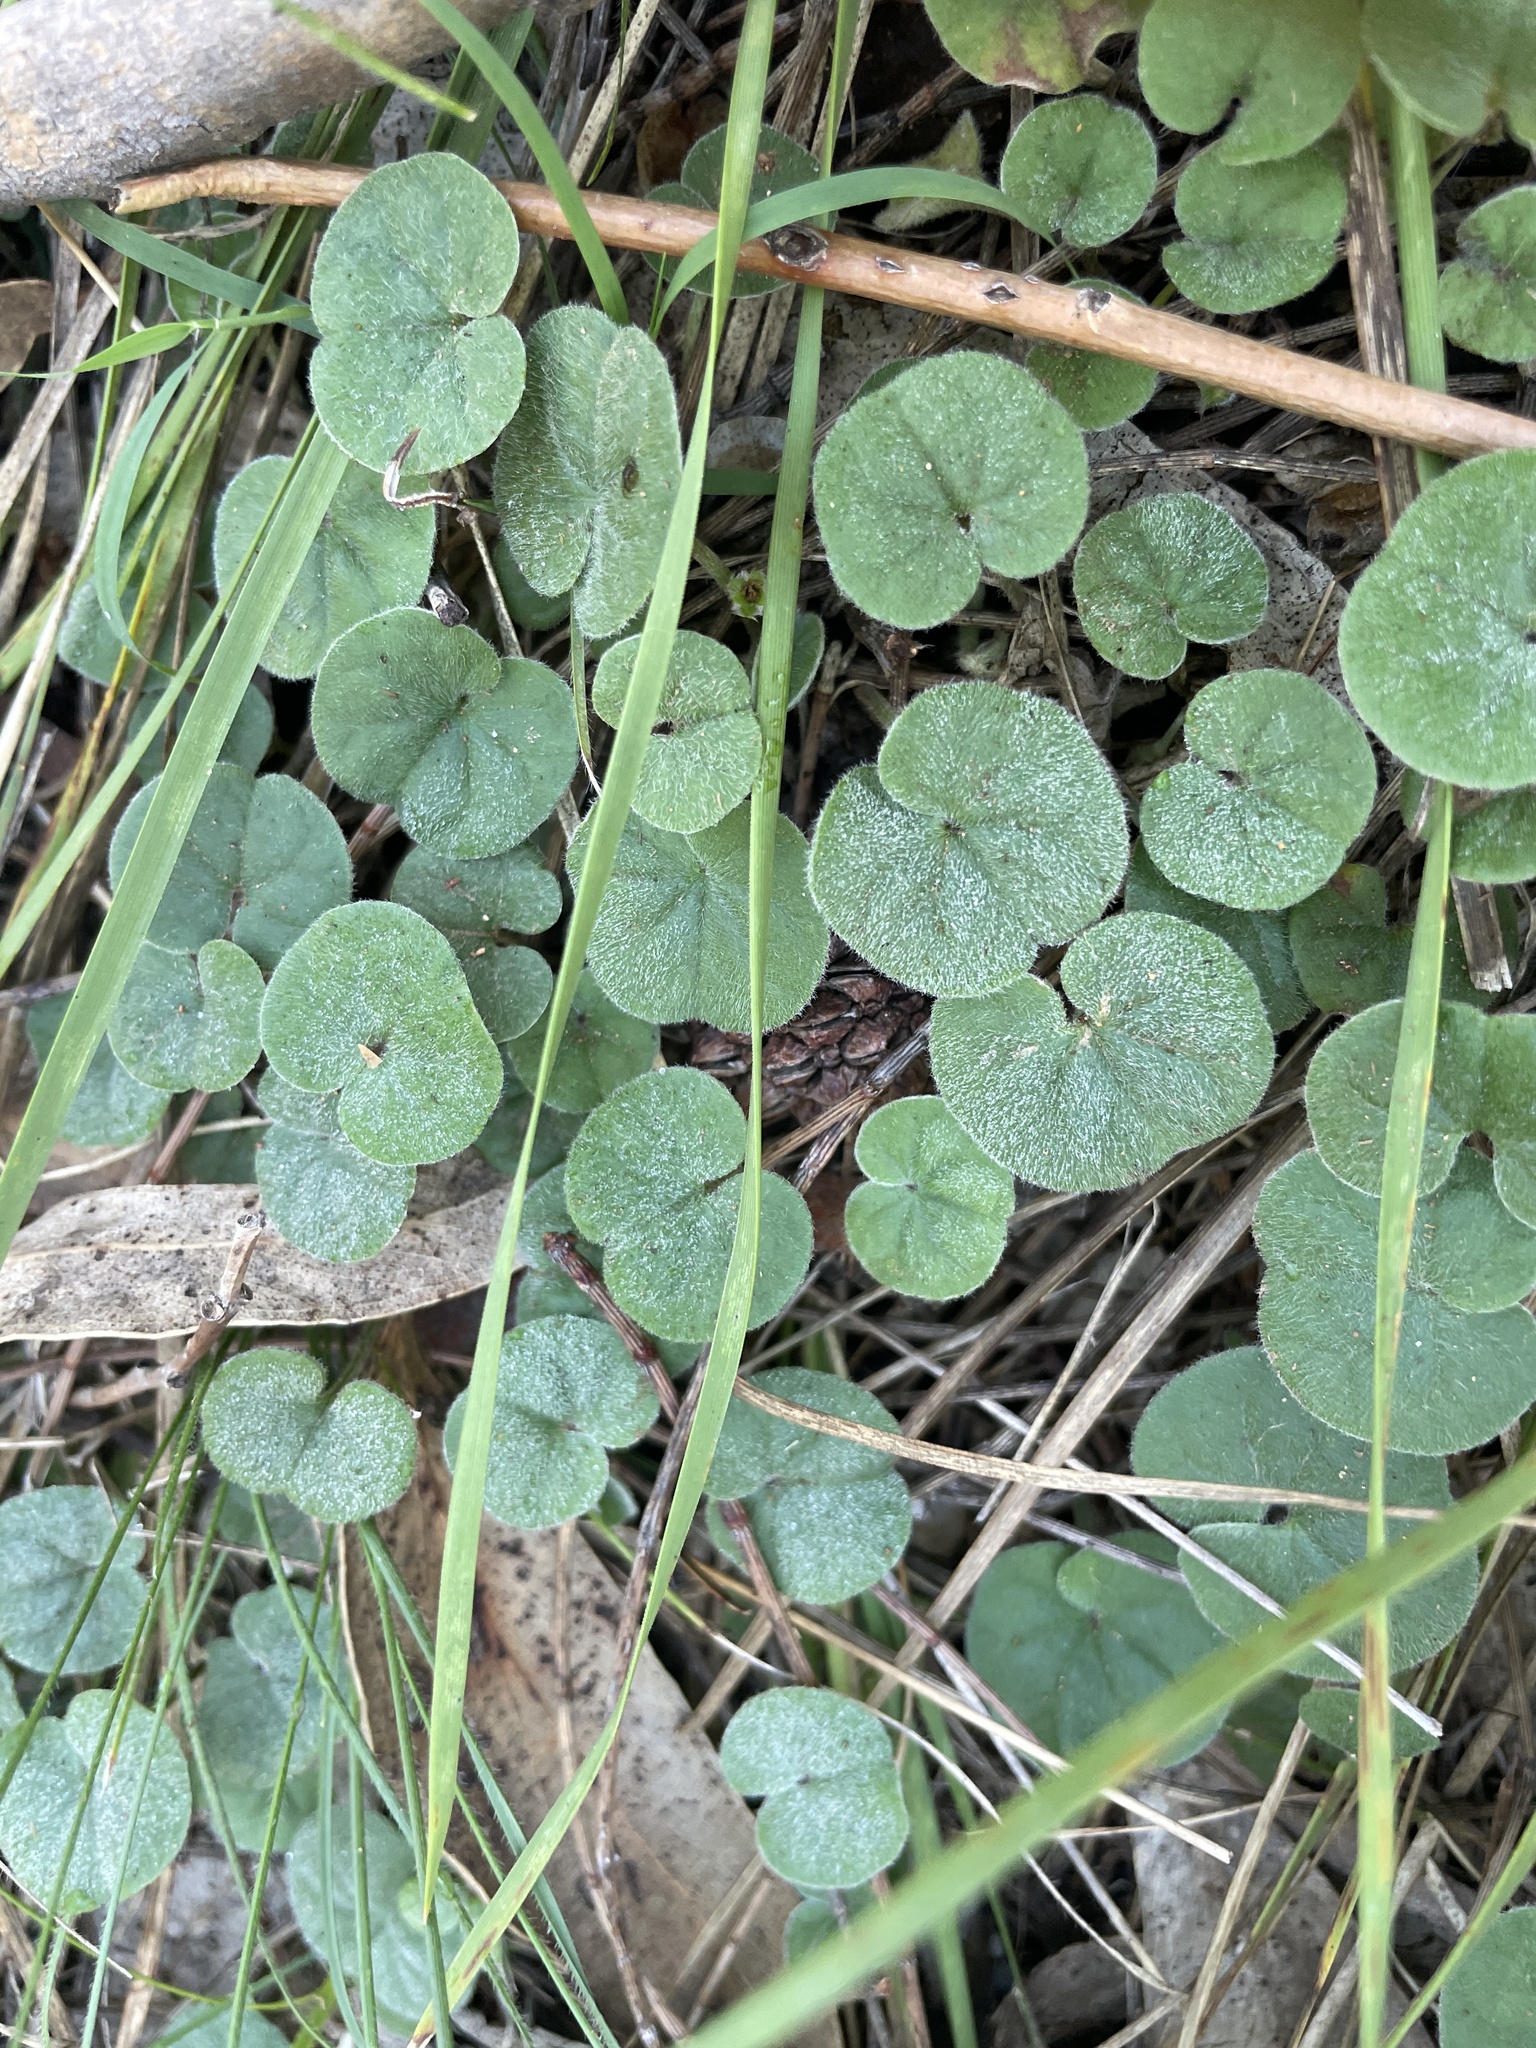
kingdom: Plantae
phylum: Tracheophyta
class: Magnoliopsida
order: Solanales
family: Convolvulaceae
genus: Dichondra
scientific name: Dichondra repens
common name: Kidneyweed
